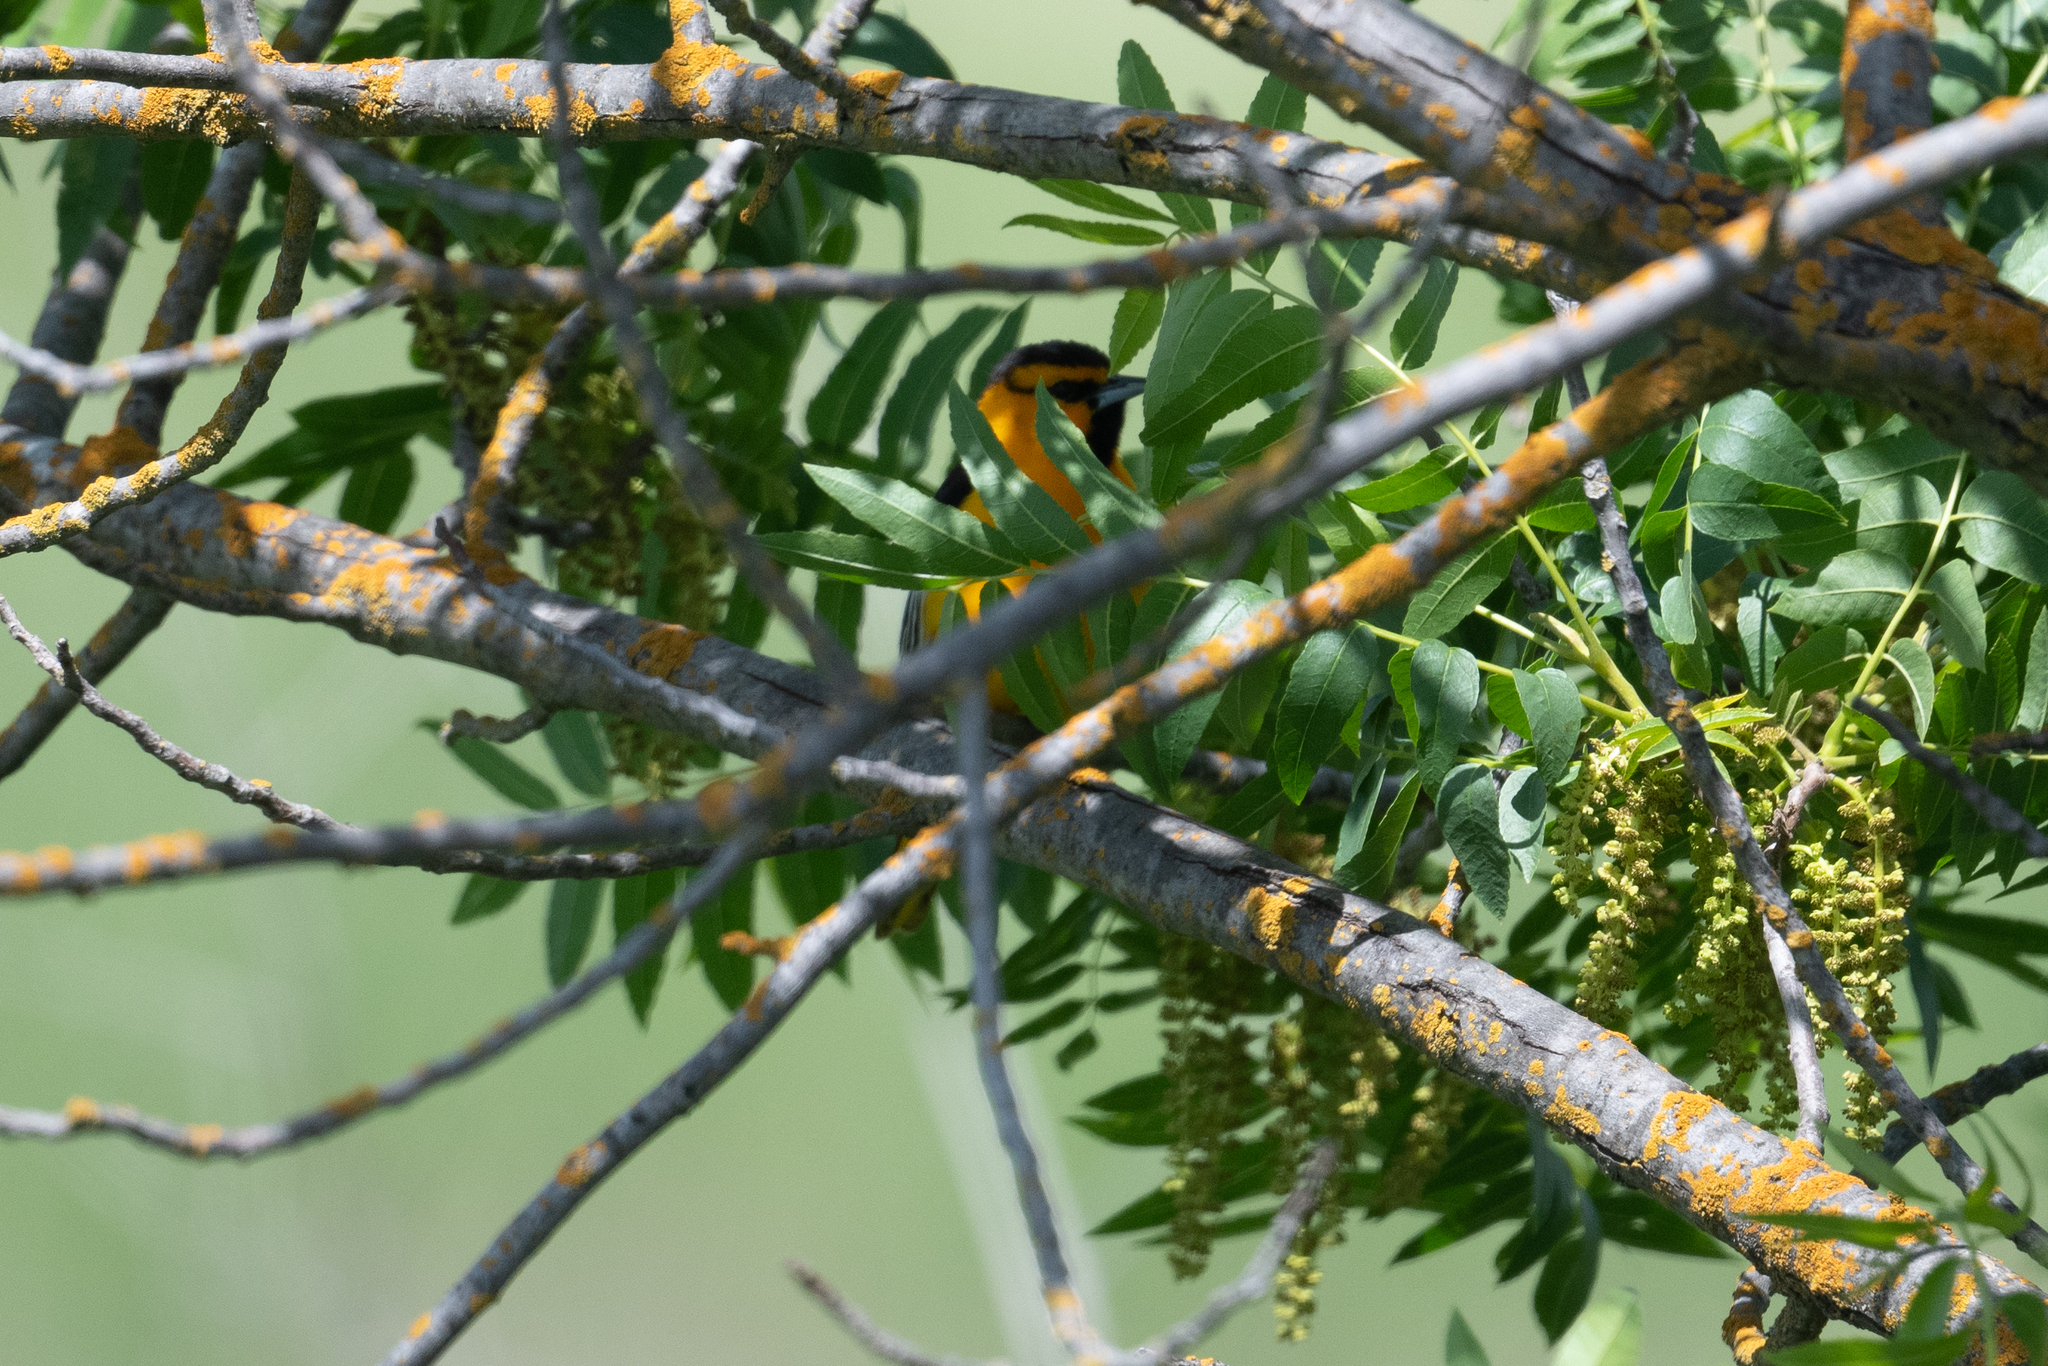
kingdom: Animalia
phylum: Chordata
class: Aves
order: Passeriformes
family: Icteridae
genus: Icterus
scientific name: Icterus bullockii
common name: Bullock's oriole
